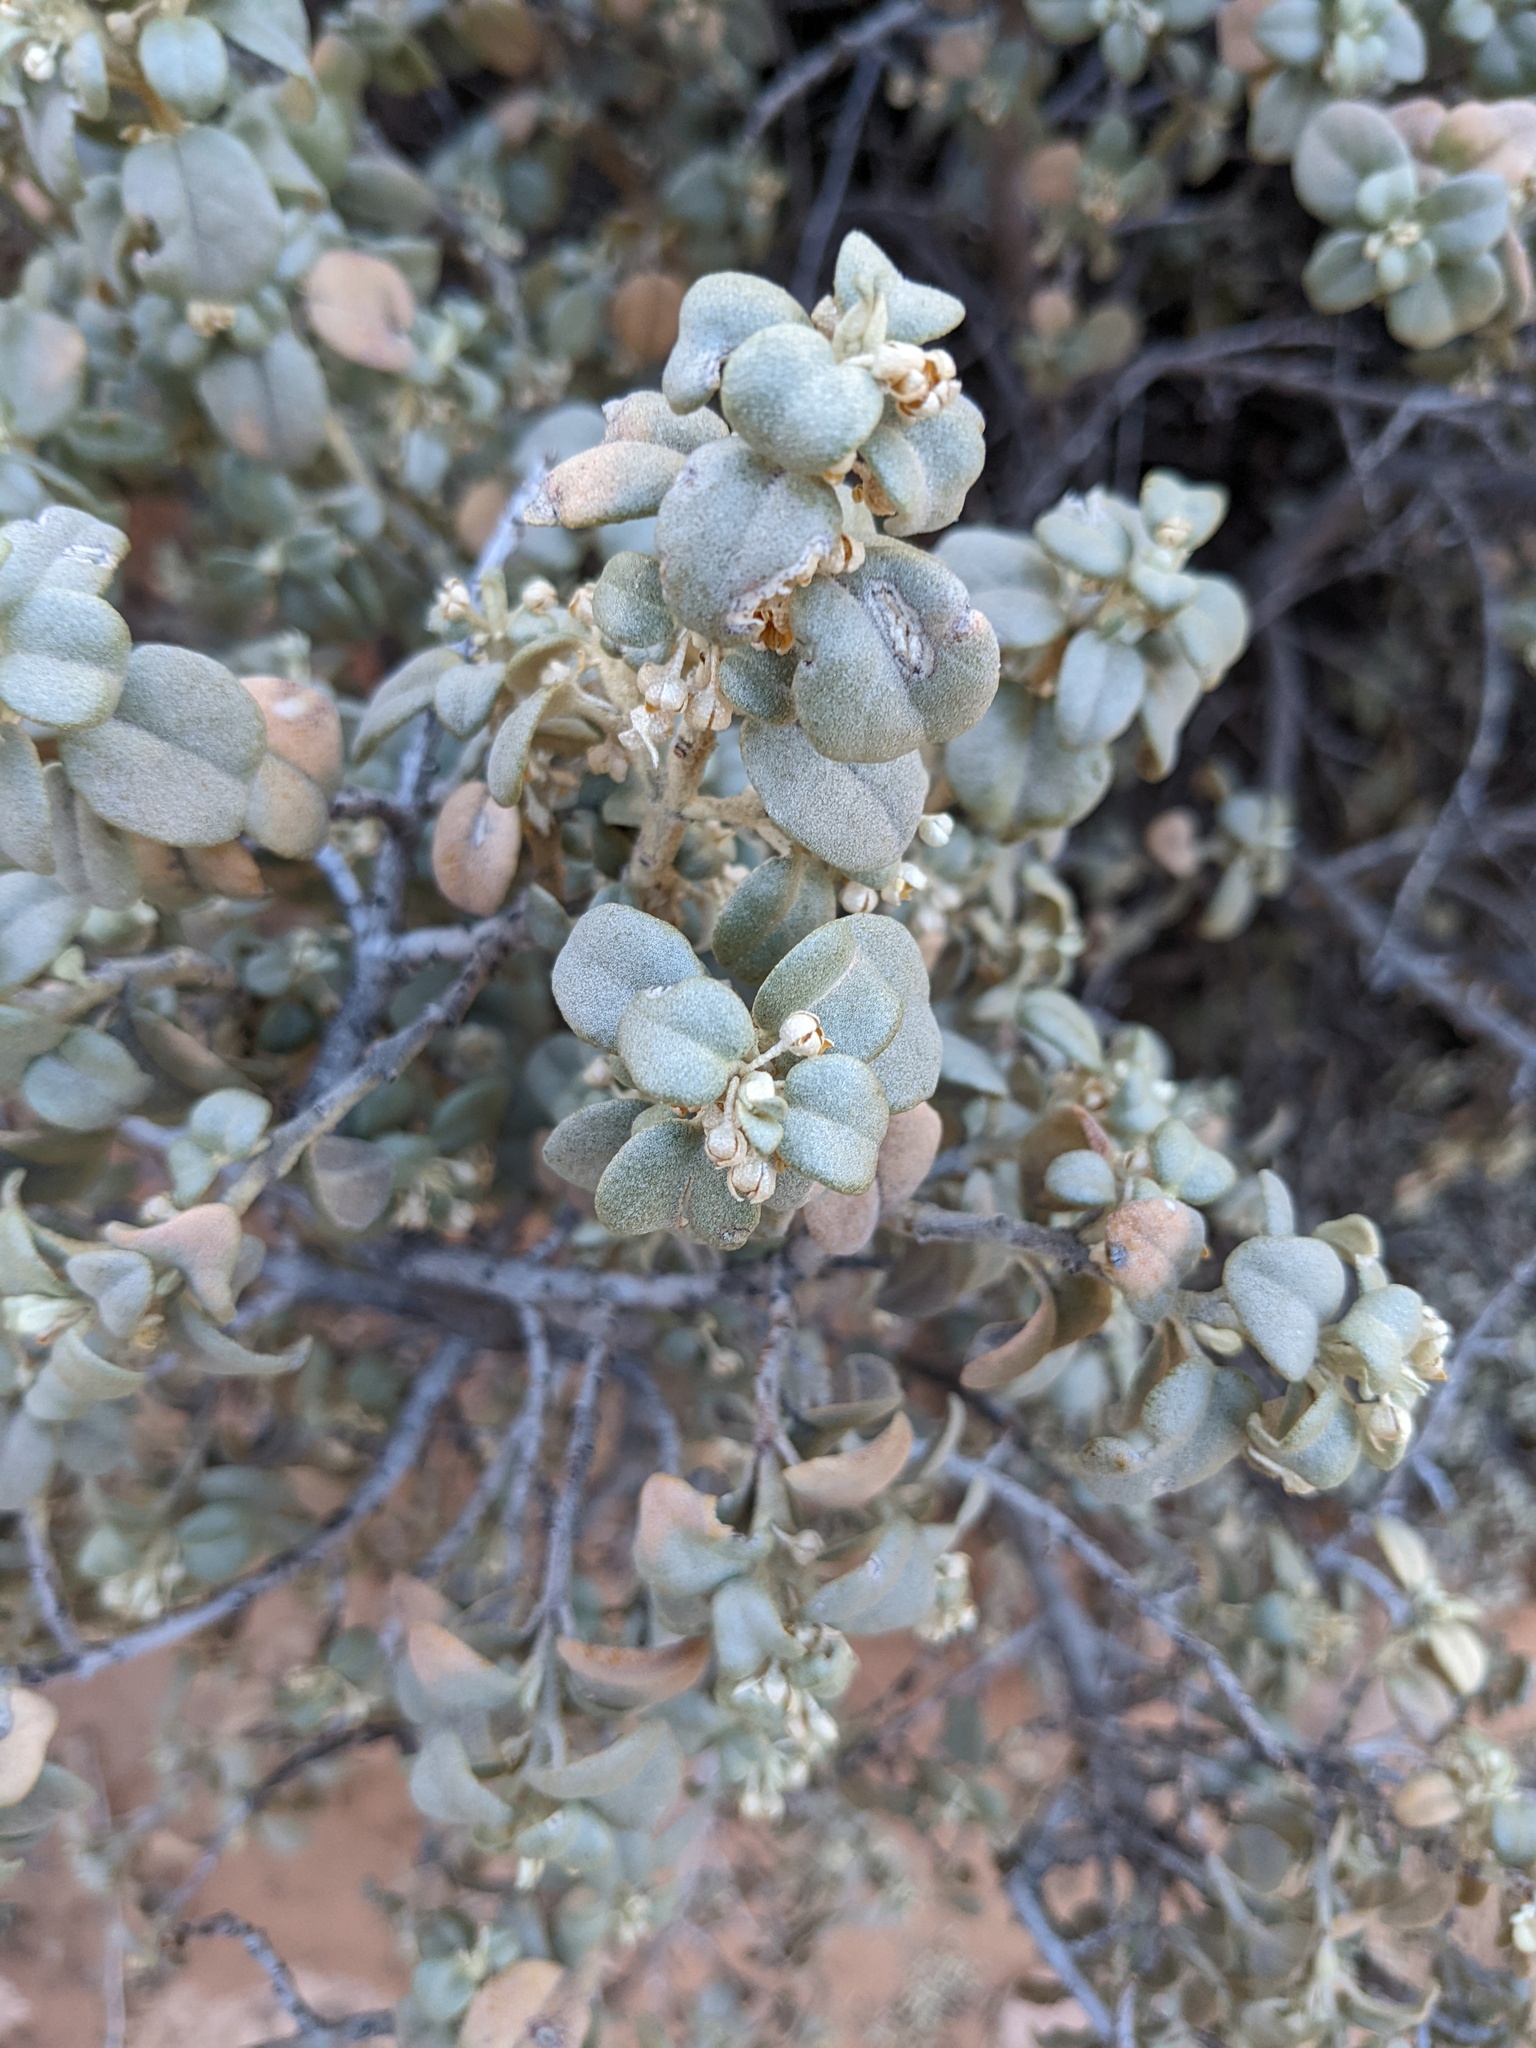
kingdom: Plantae
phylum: Tracheophyta
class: Magnoliopsida
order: Rosales
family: Elaeagnaceae
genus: Shepherdia
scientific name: Shepherdia rotundifolia
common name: Silverscale
